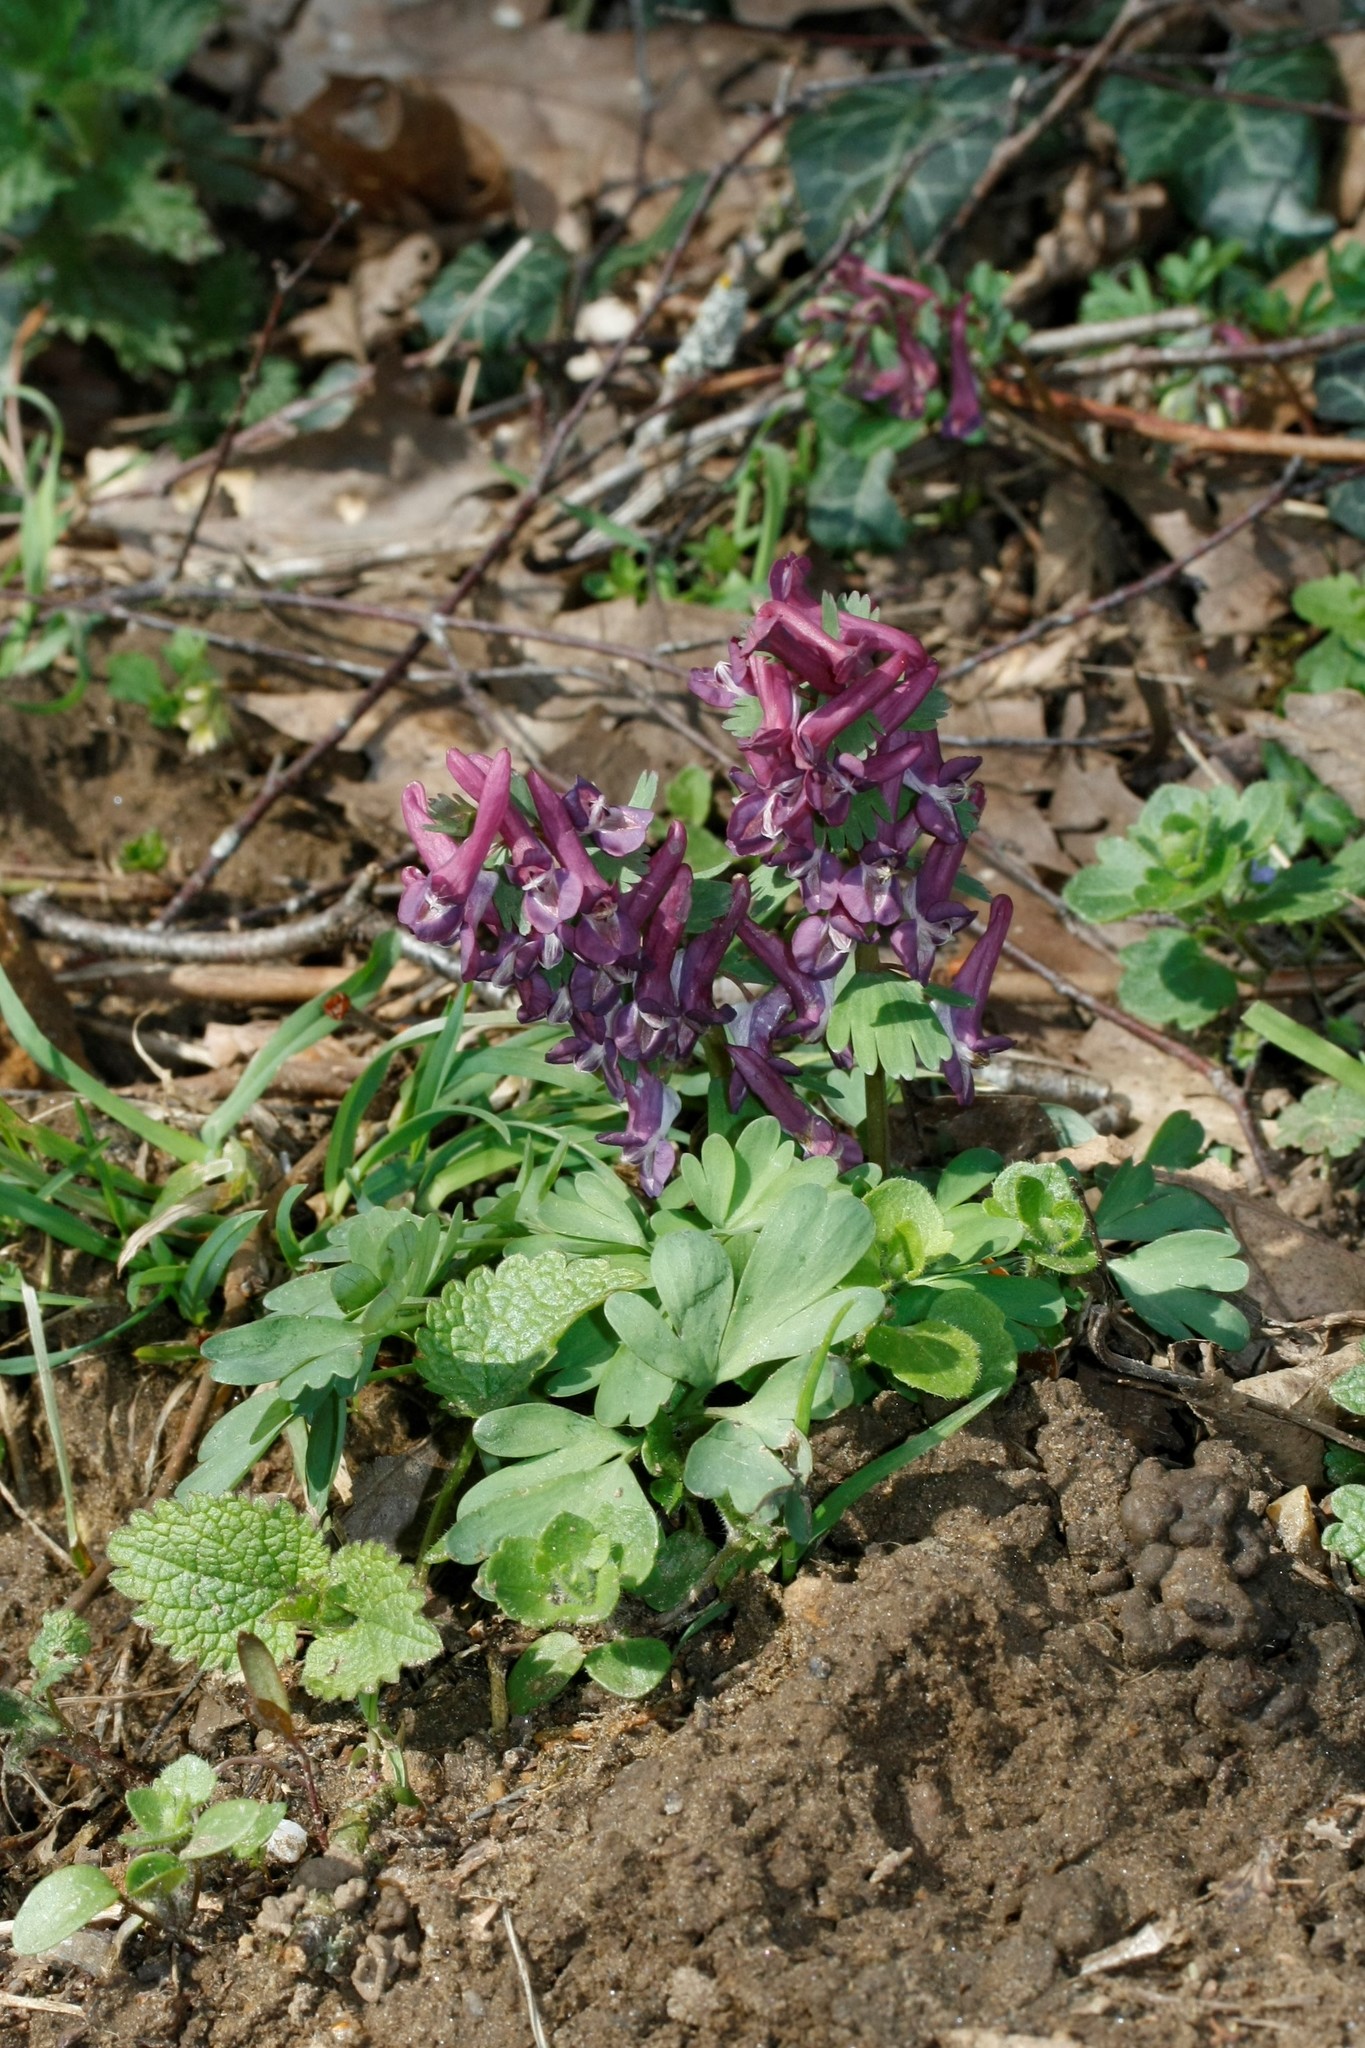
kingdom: Plantae
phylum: Tracheophyta
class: Magnoliopsida
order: Ranunculales
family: Papaveraceae
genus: Corydalis
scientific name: Corydalis solida
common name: Bird-in-a-bush
